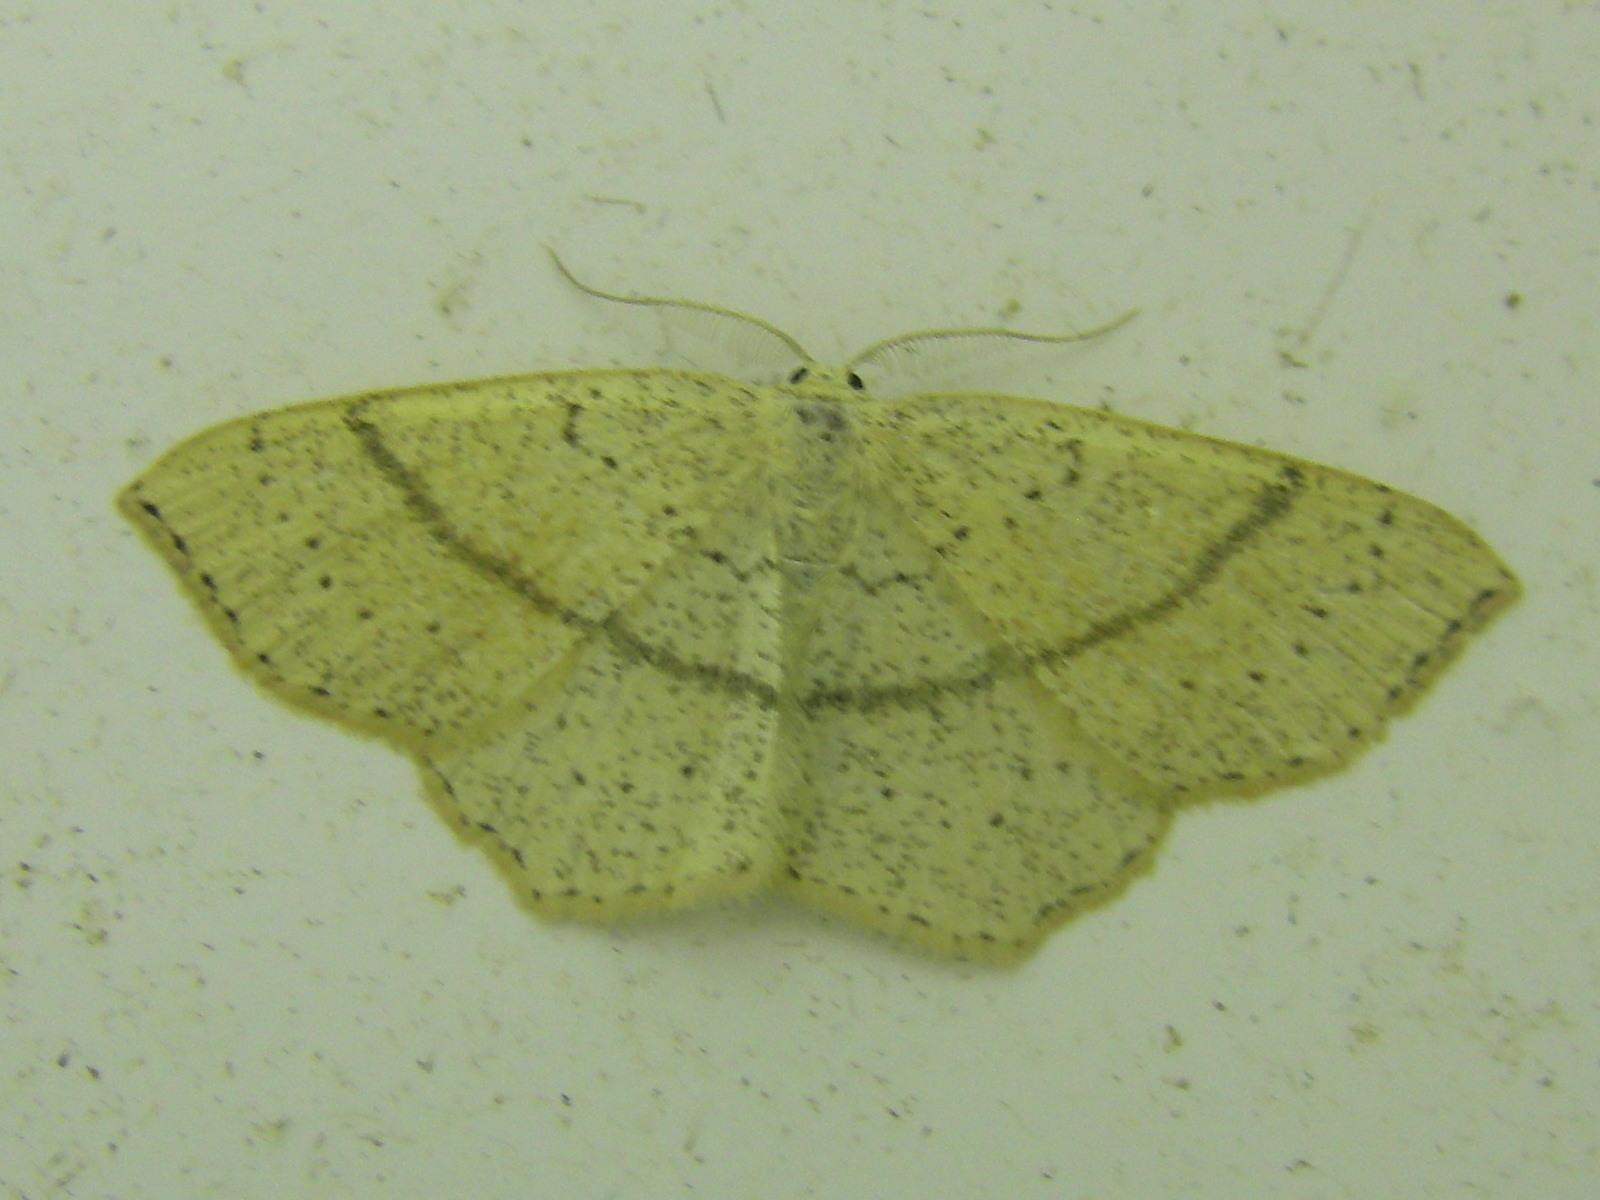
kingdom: Animalia
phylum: Arthropoda
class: Insecta
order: Lepidoptera
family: Geometridae
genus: Cyclophora
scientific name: Cyclophora punctaria
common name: Maiden's blush
